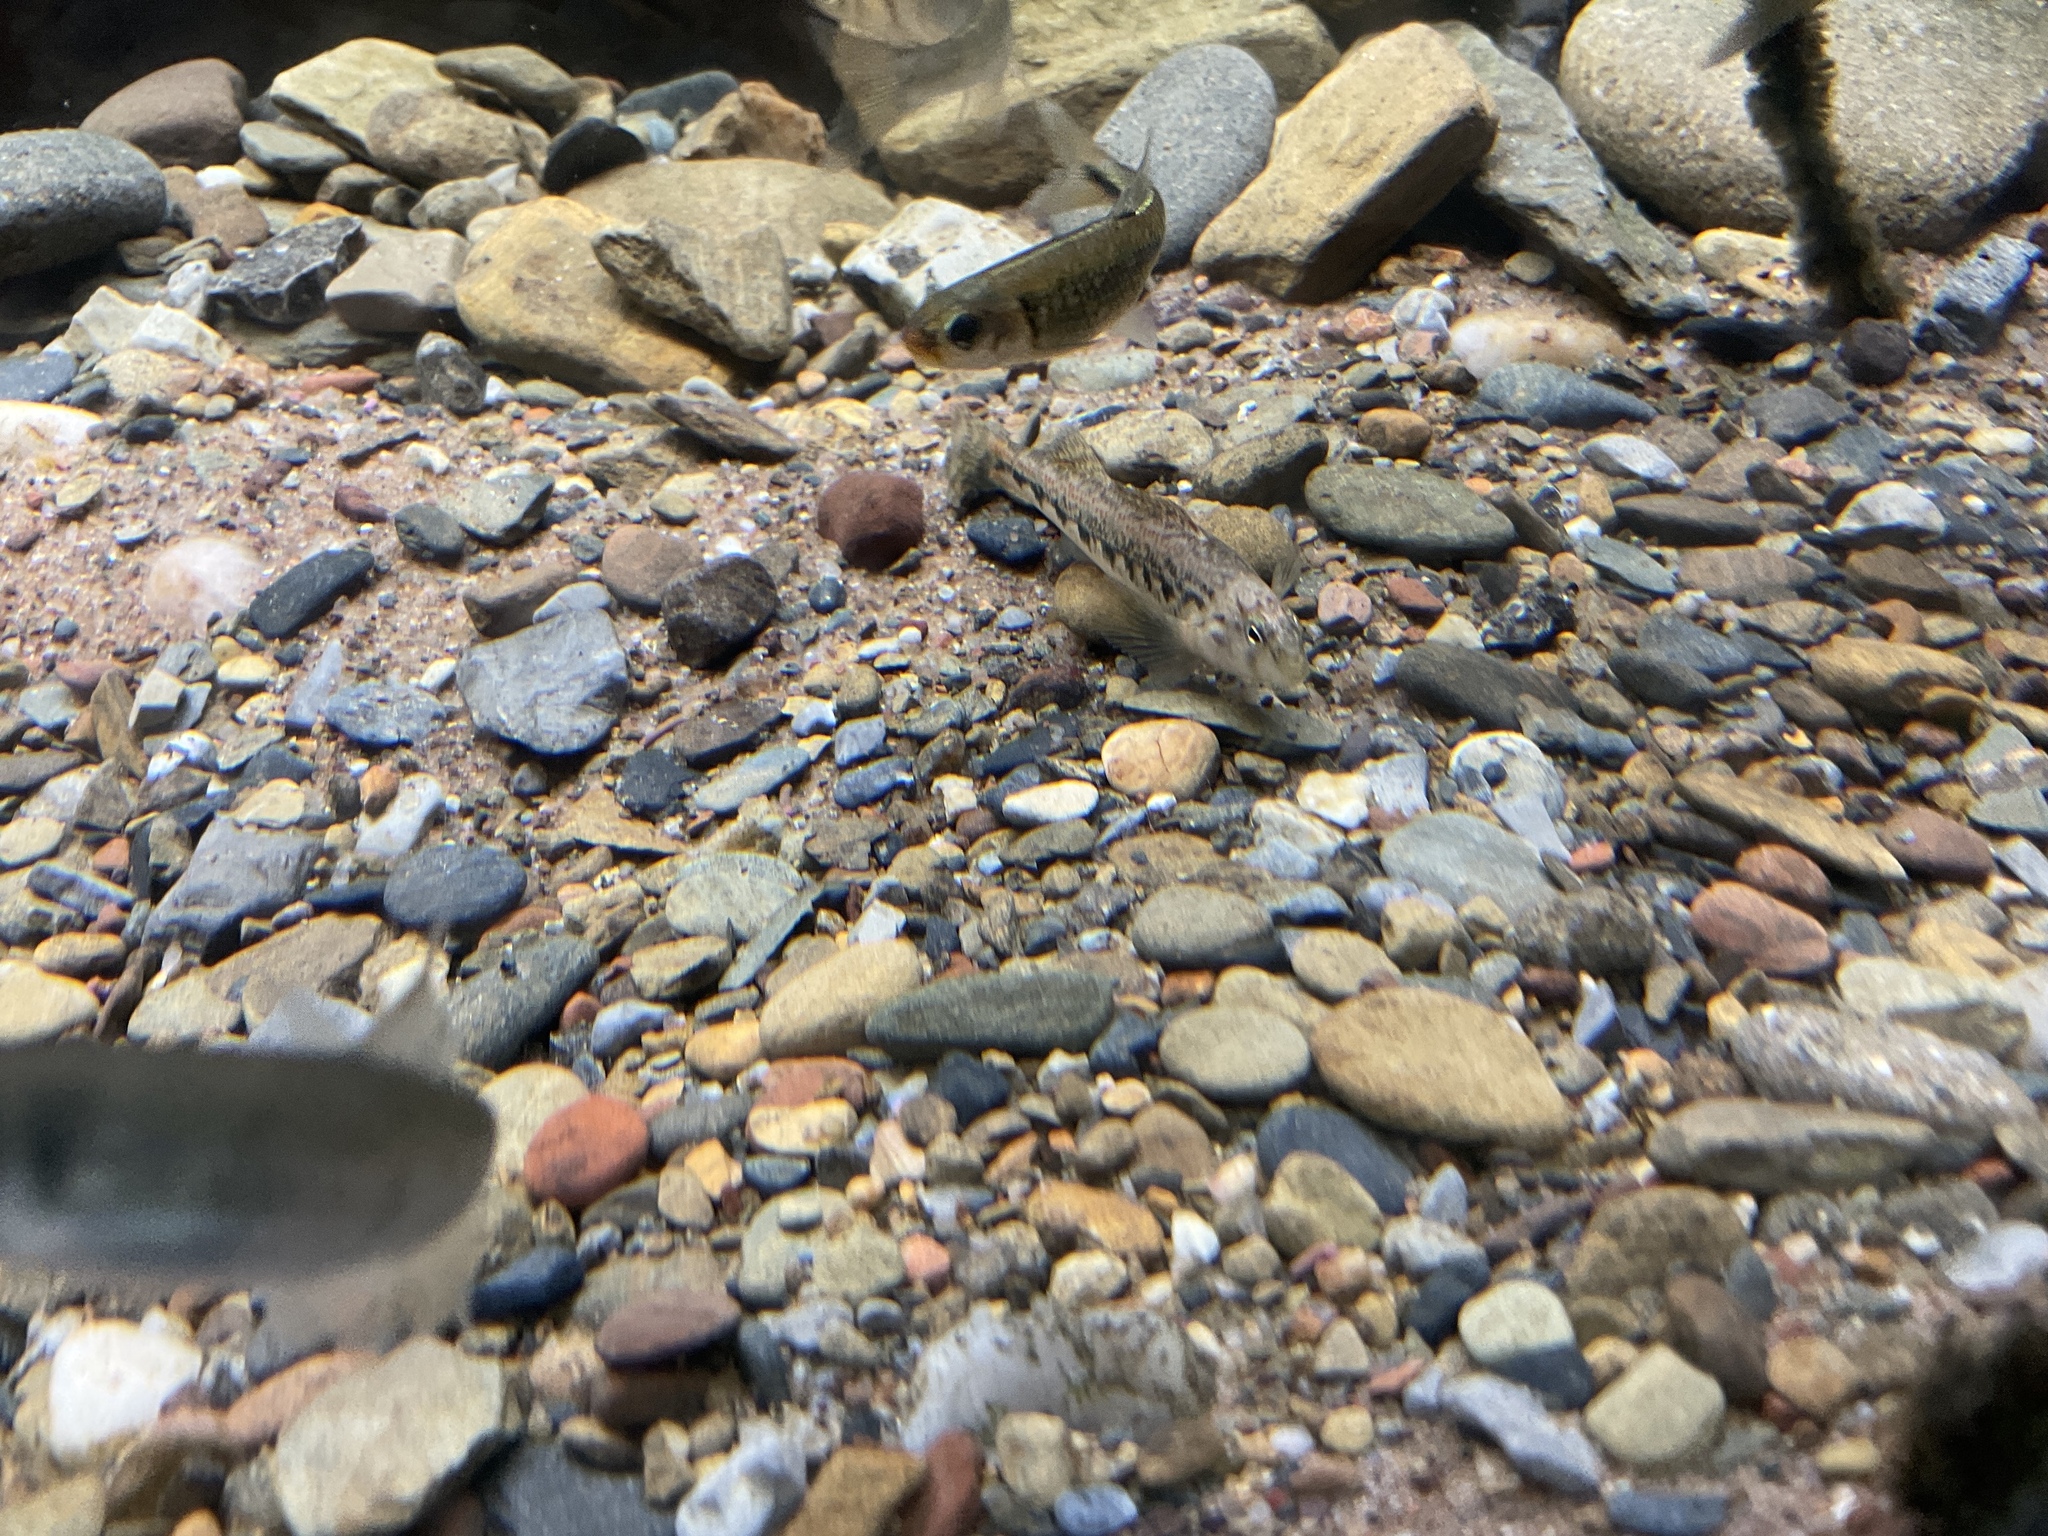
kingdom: Animalia
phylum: Chordata
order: Perciformes
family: Percidae
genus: Etheostoma
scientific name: Etheostoma simoterum
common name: Snubnose darter
